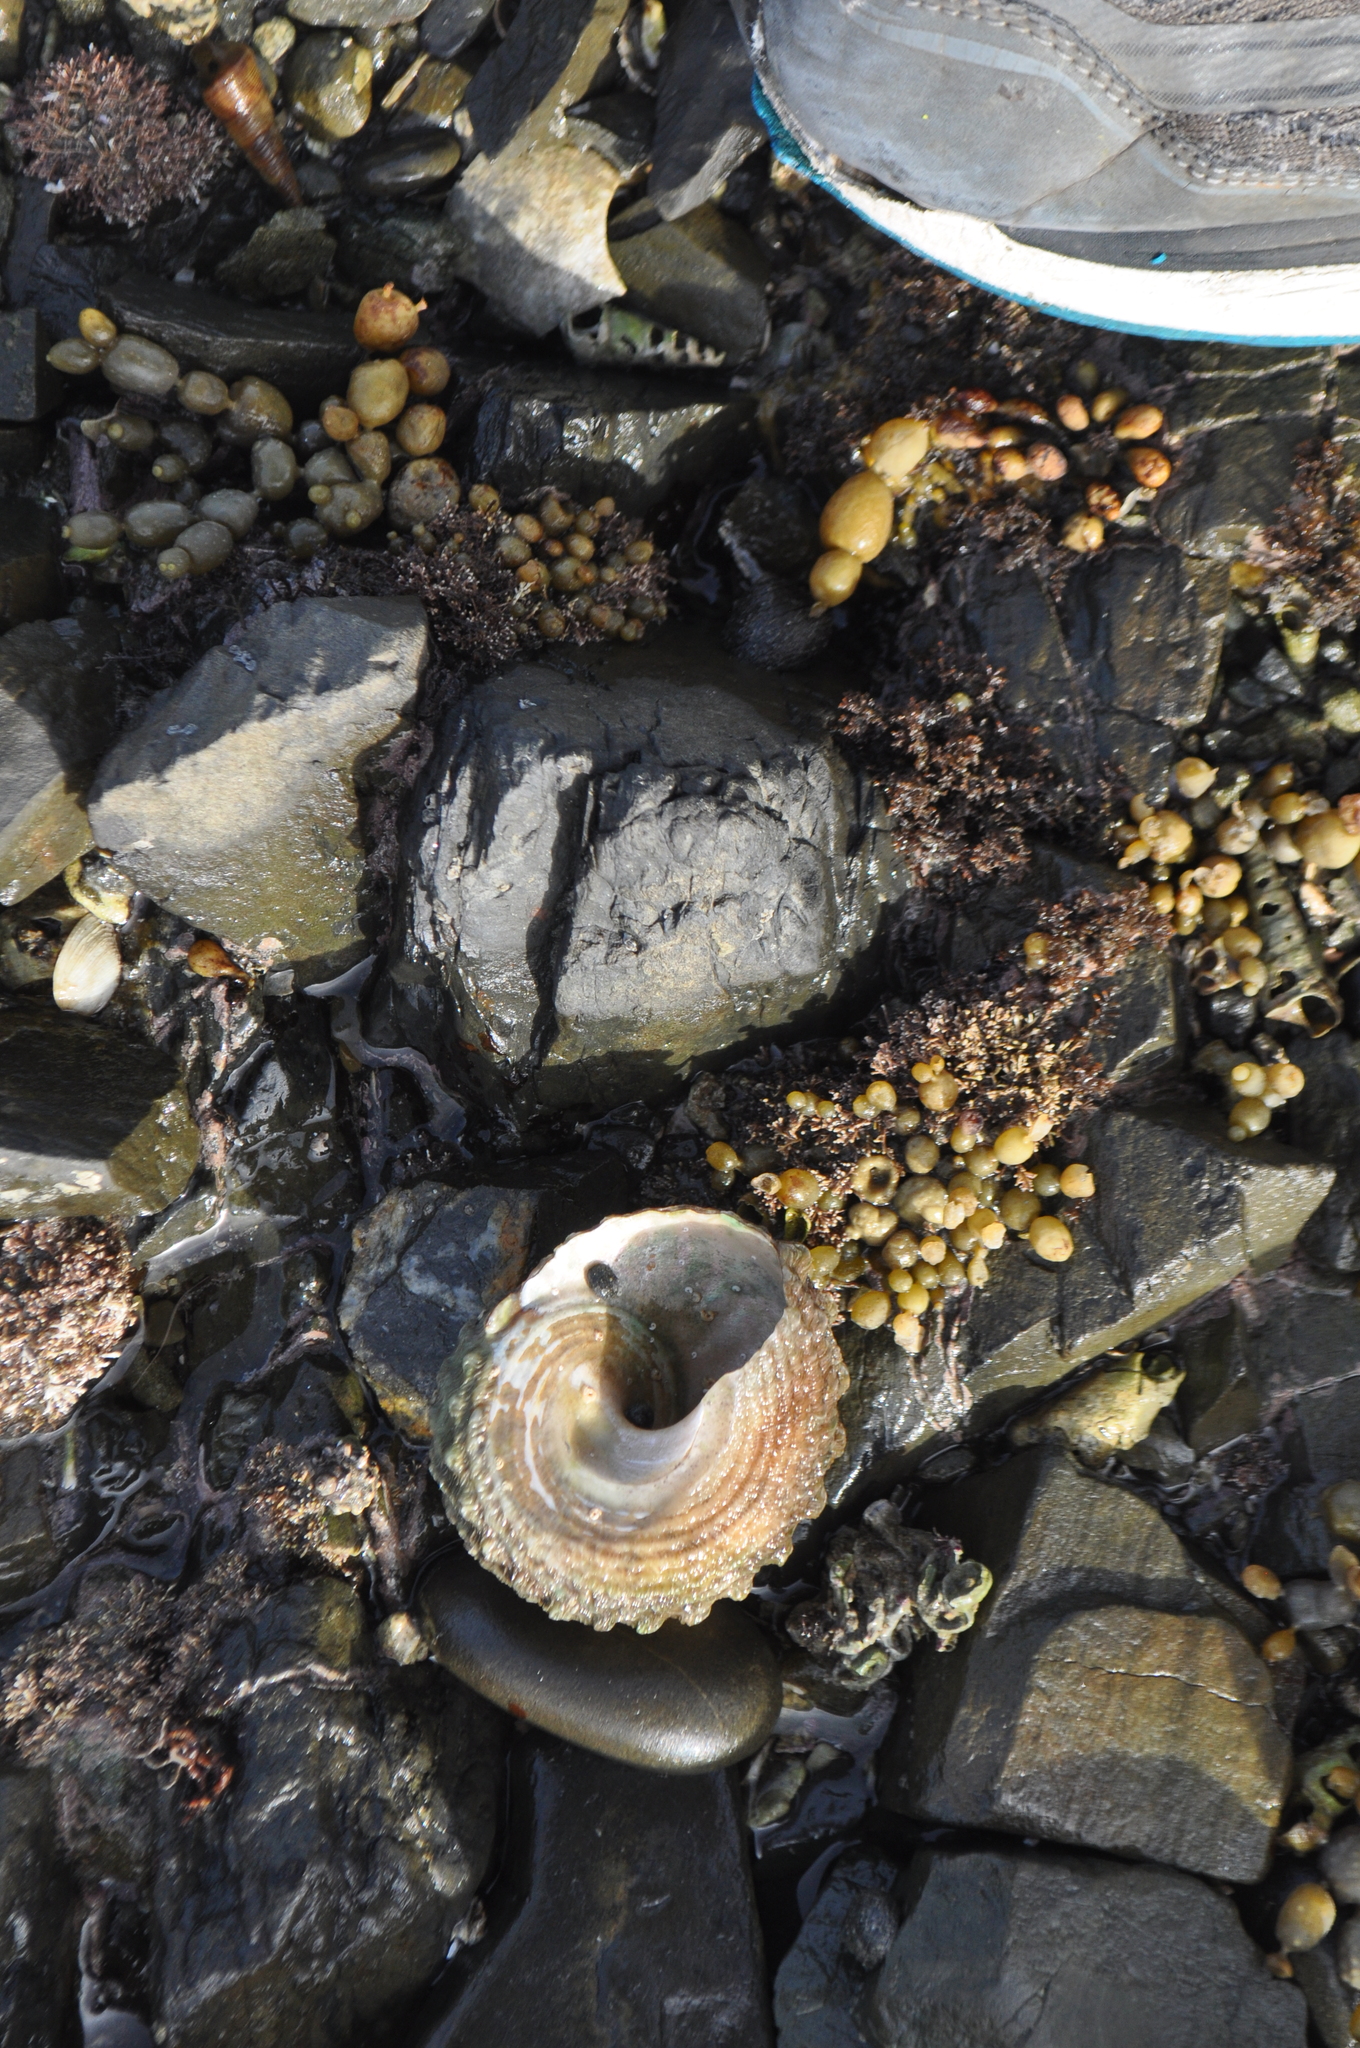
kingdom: Animalia
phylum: Mollusca
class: Gastropoda
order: Trochida
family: Turbinidae
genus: Cookia
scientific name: Cookia sulcata
